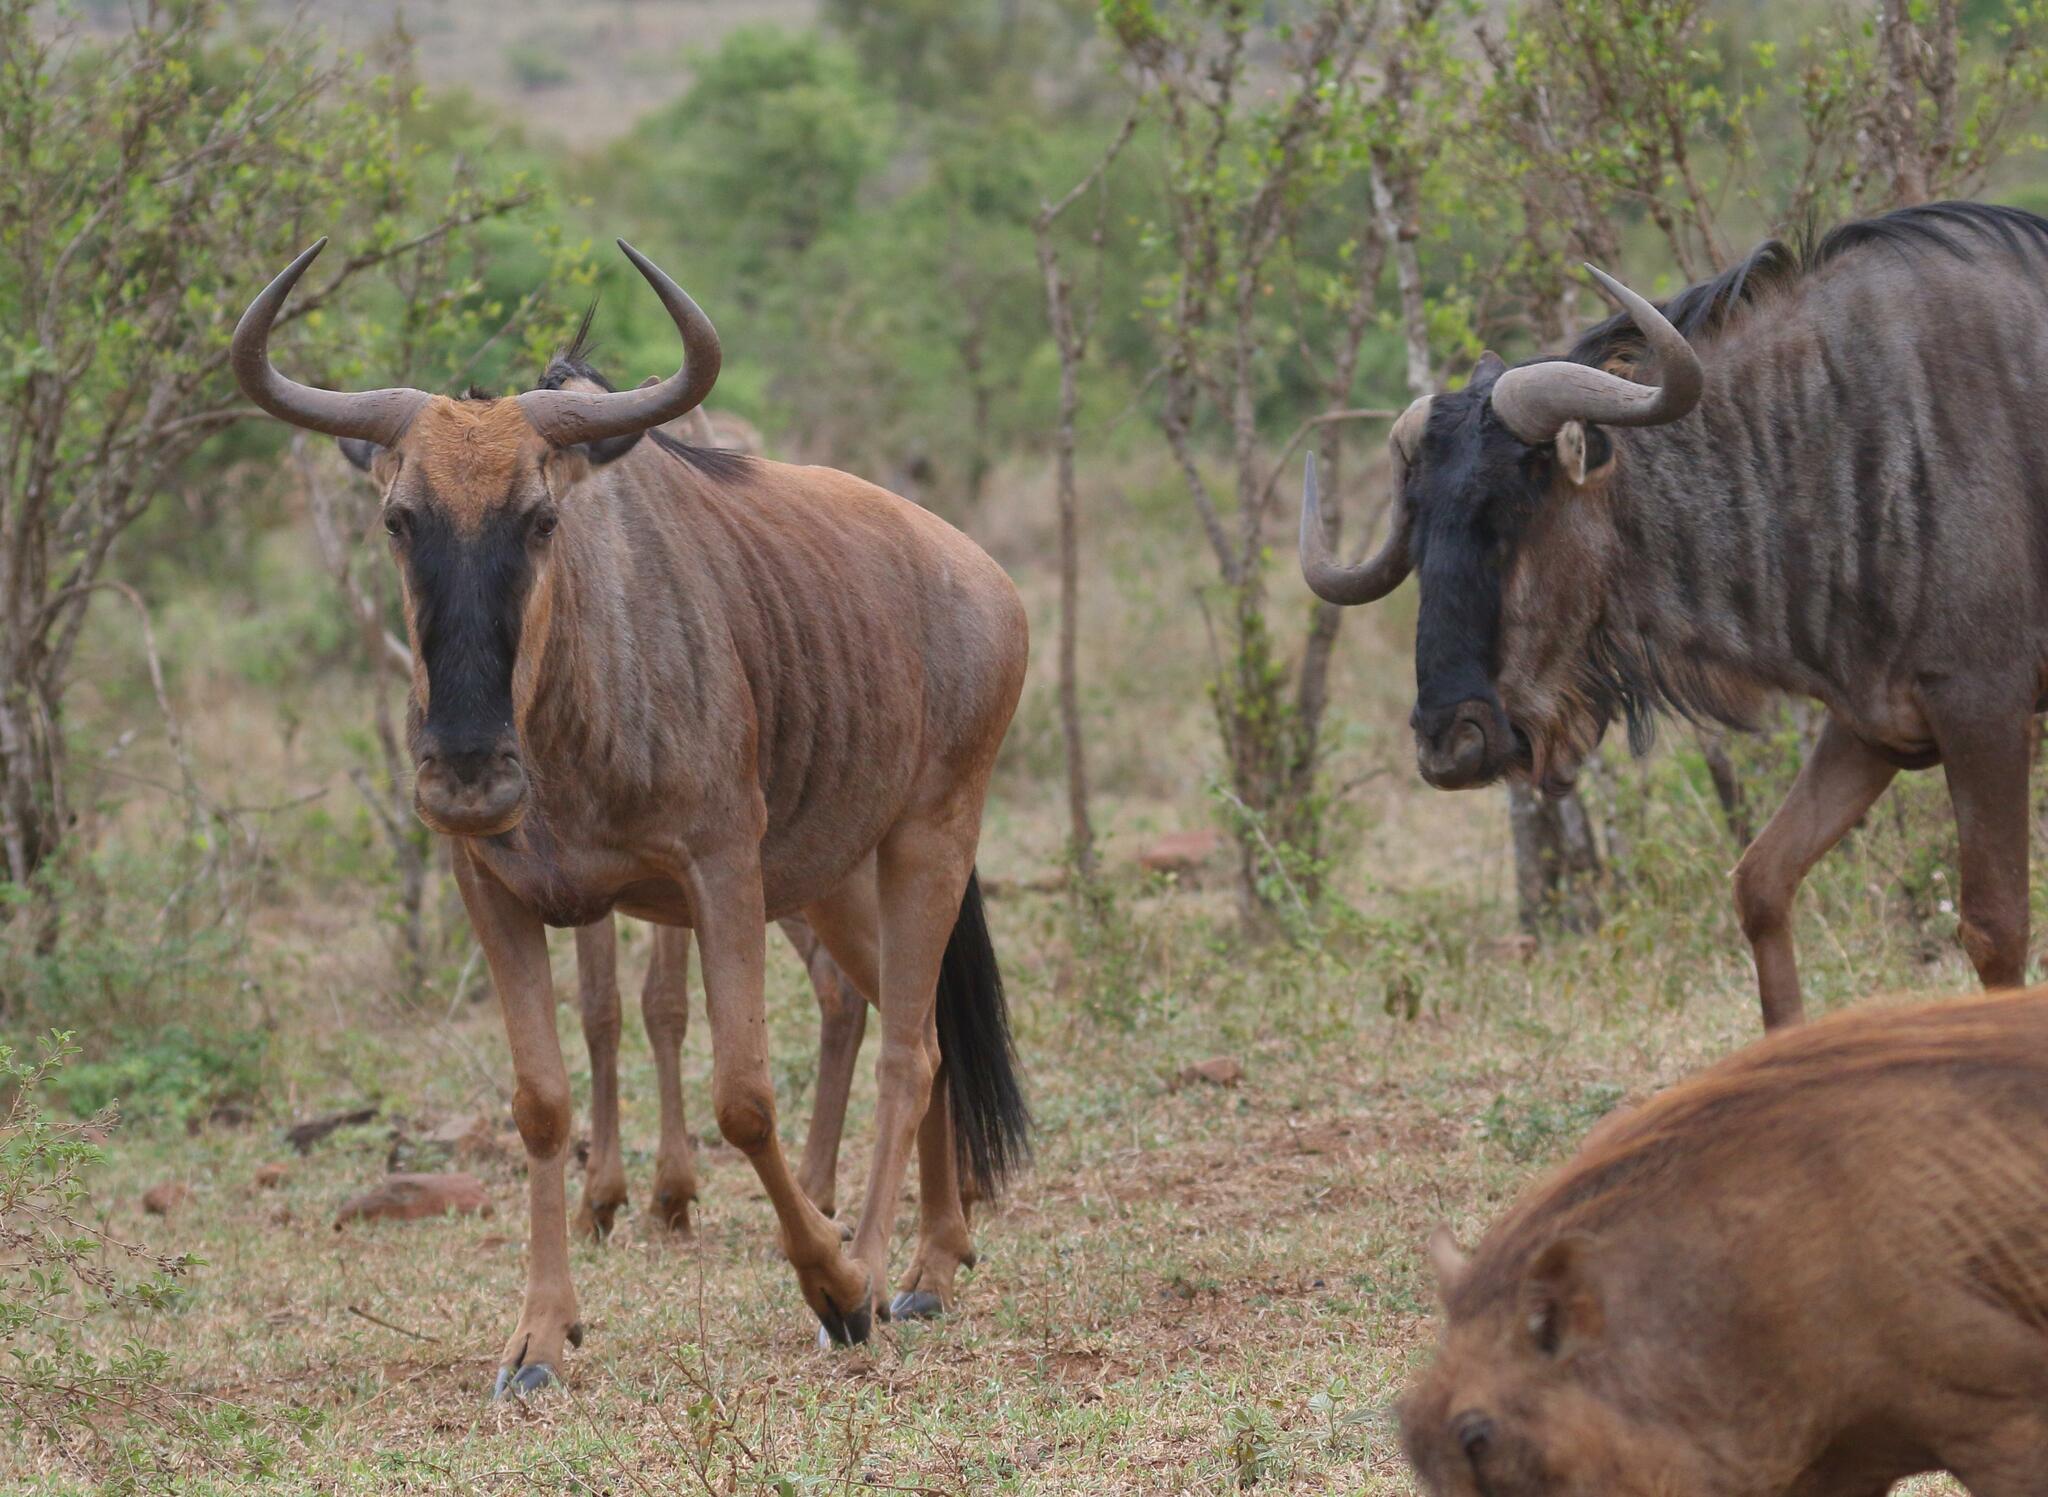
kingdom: Animalia
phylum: Chordata
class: Mammalia
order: Artiodactyla
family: Bovidae
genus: Connochaetes
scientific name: Connochaetes taurinus
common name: Blue wildebeest
